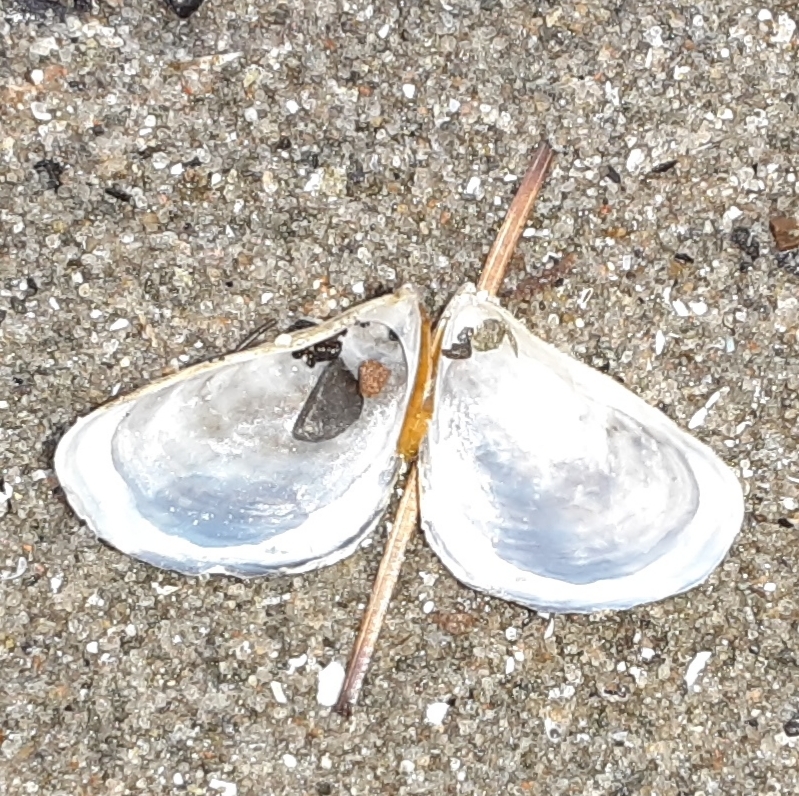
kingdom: Animalia
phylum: Mollusca
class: Bivalvia
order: Myida
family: Dreissenidae
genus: Dreissena
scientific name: Dreissena bugensis
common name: Quagga mussel
